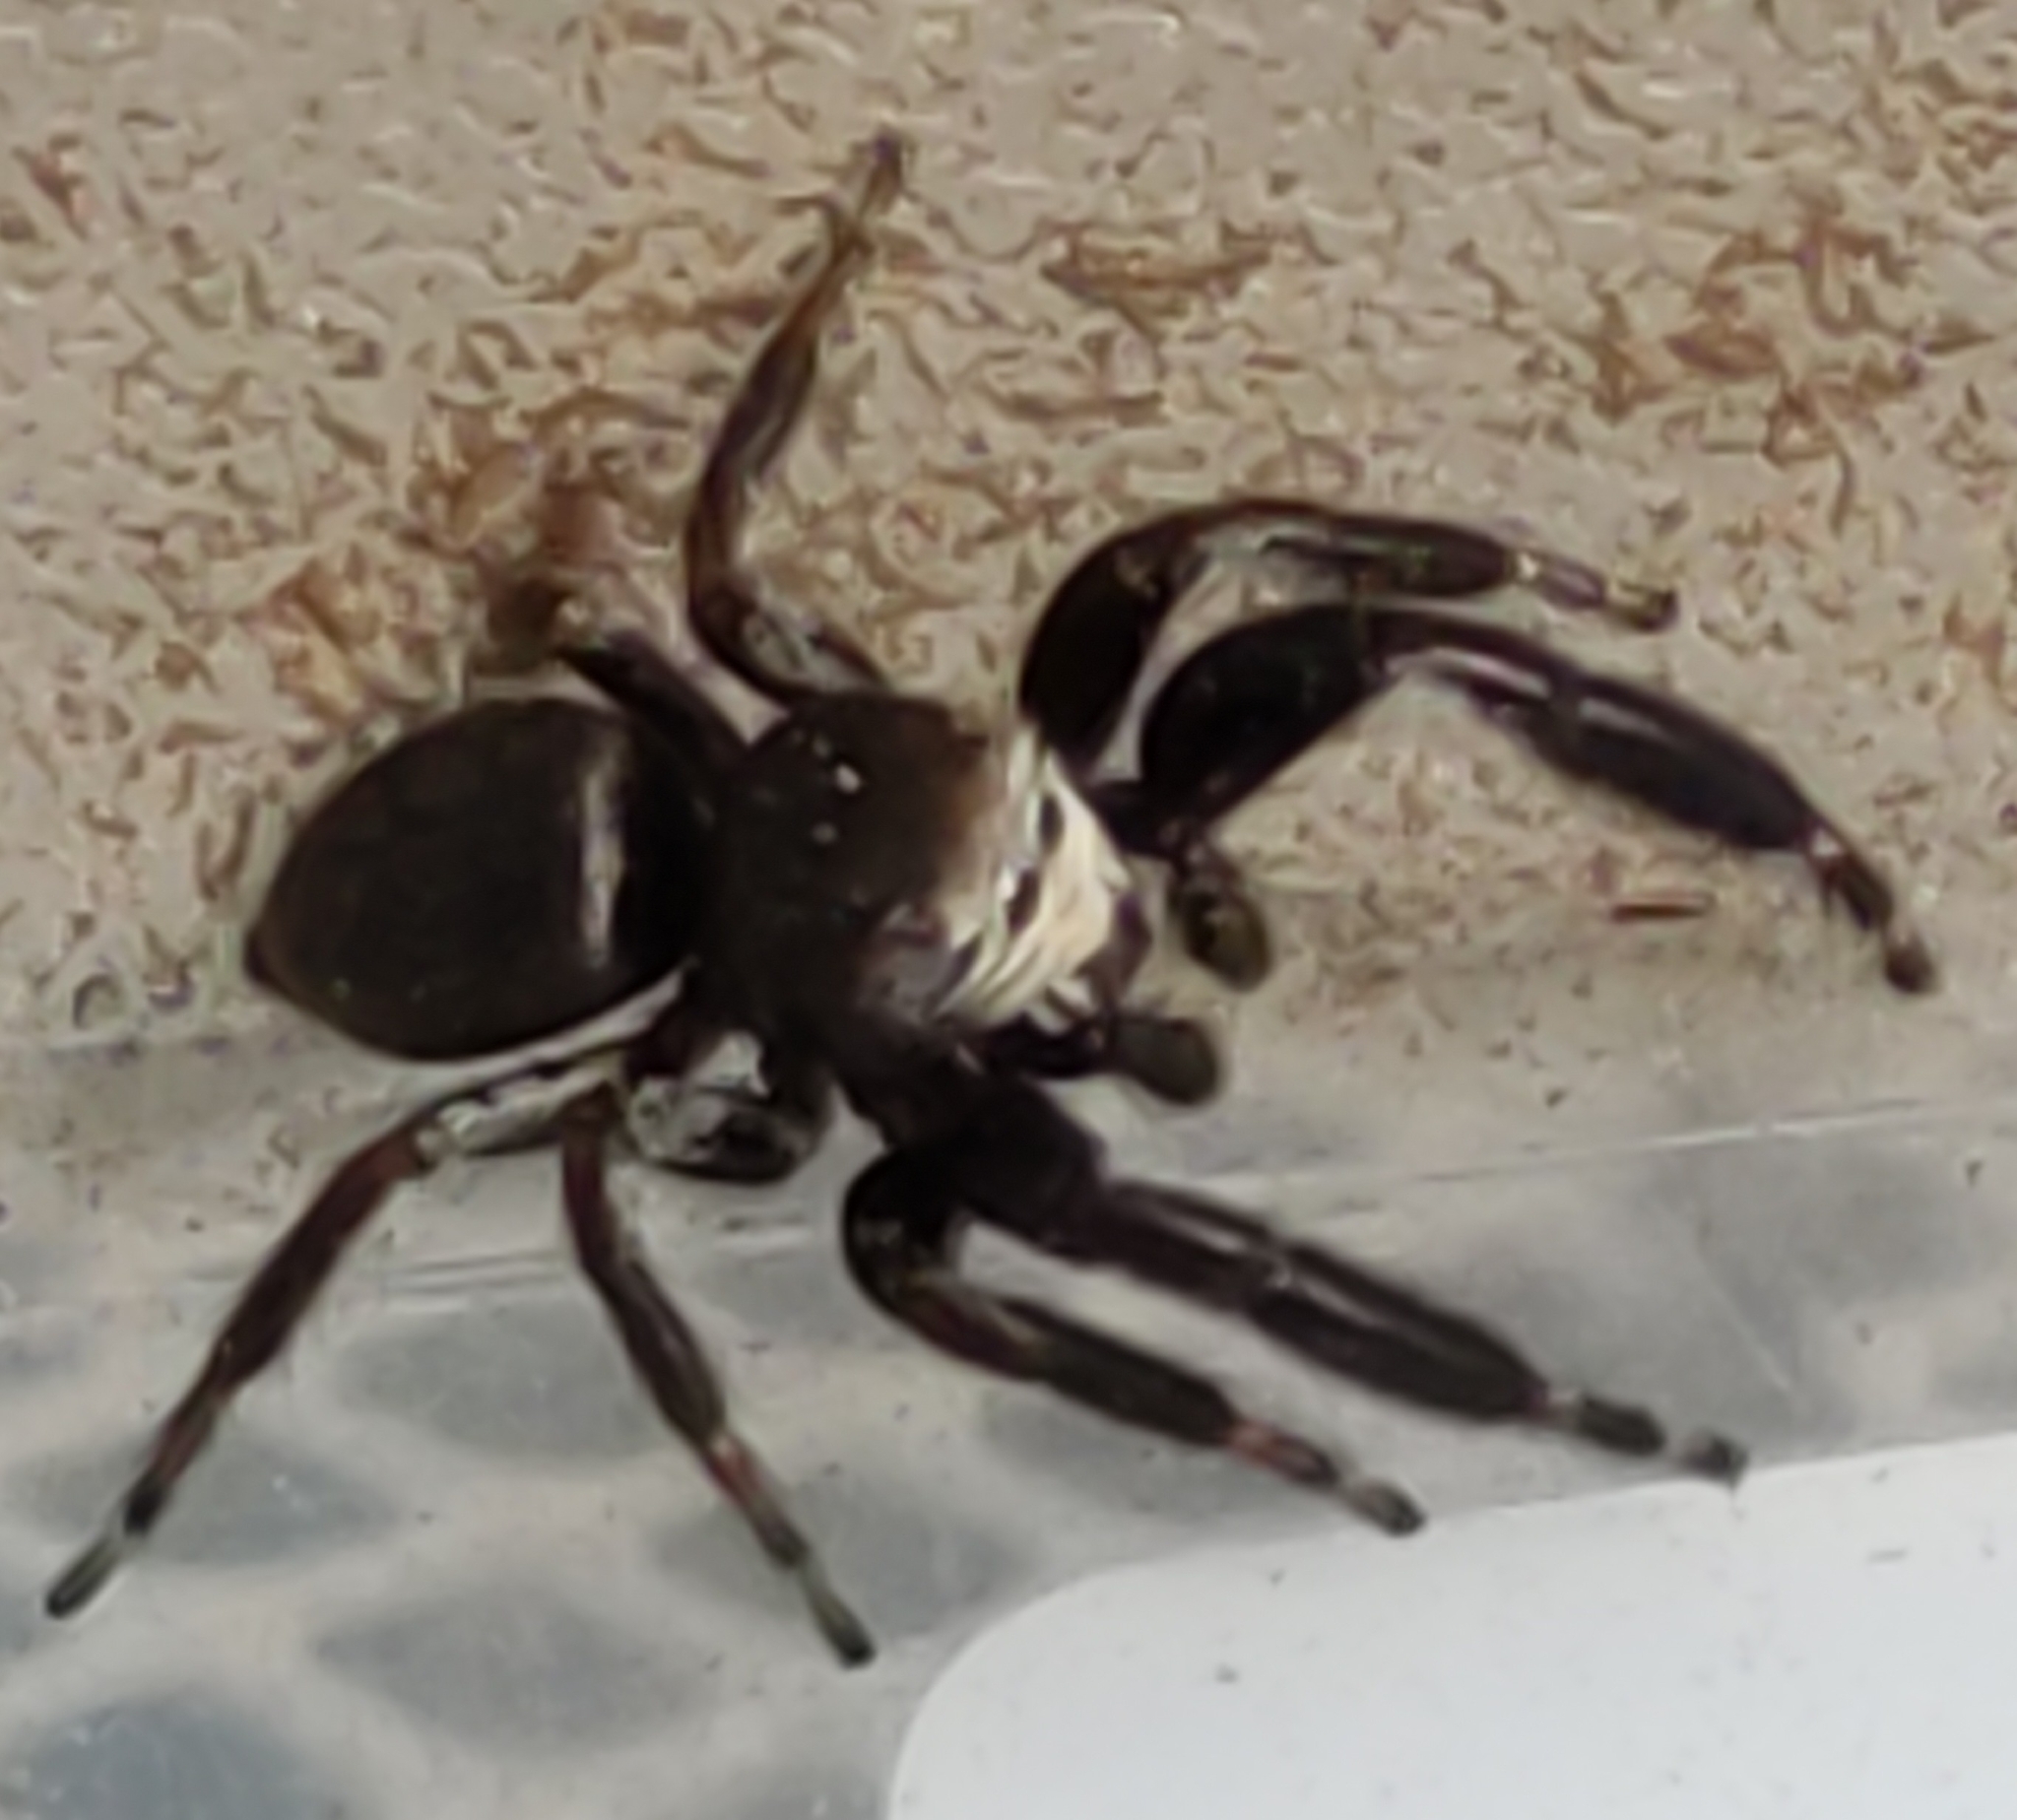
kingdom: Animalia
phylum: Arthropoda
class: Arachnida
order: Araneae
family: Salticidae
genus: Evarcha
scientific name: Evarcha arcuata
